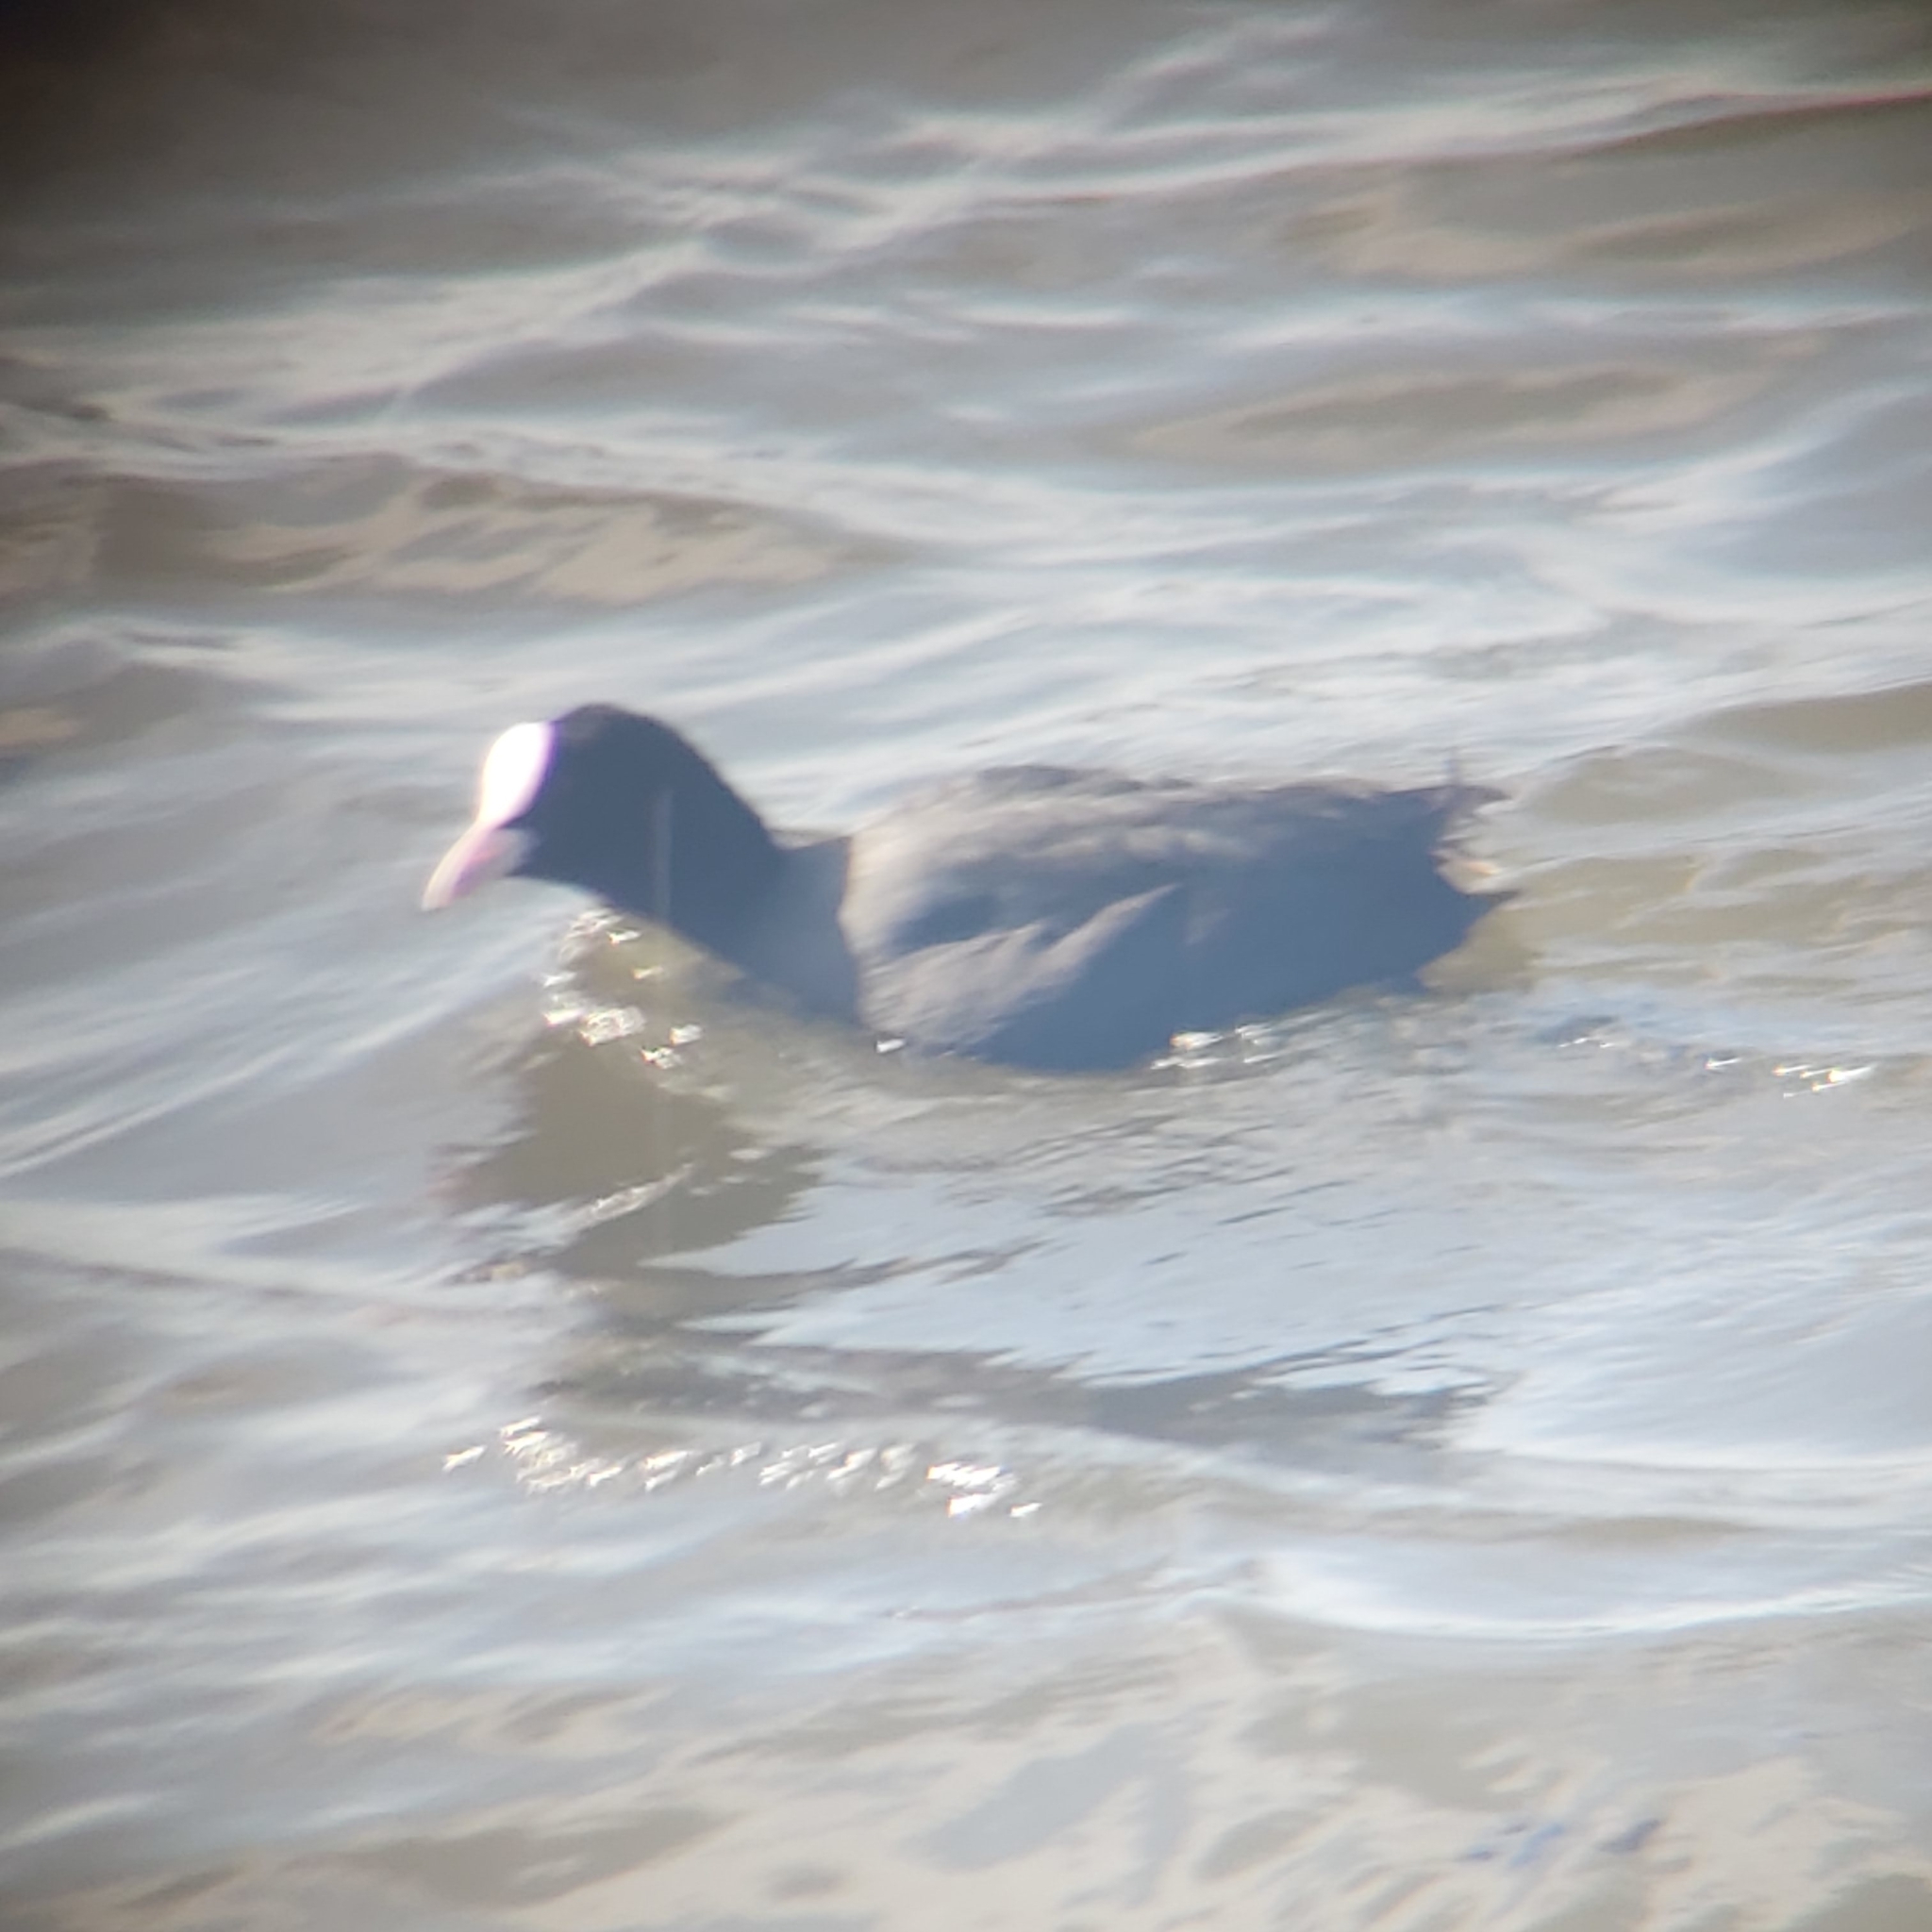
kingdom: Animalia
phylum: Chordata
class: Aves
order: Gruiformes
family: Rallidae
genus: Fulica
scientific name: Fulica atra
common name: Eurasian coot
